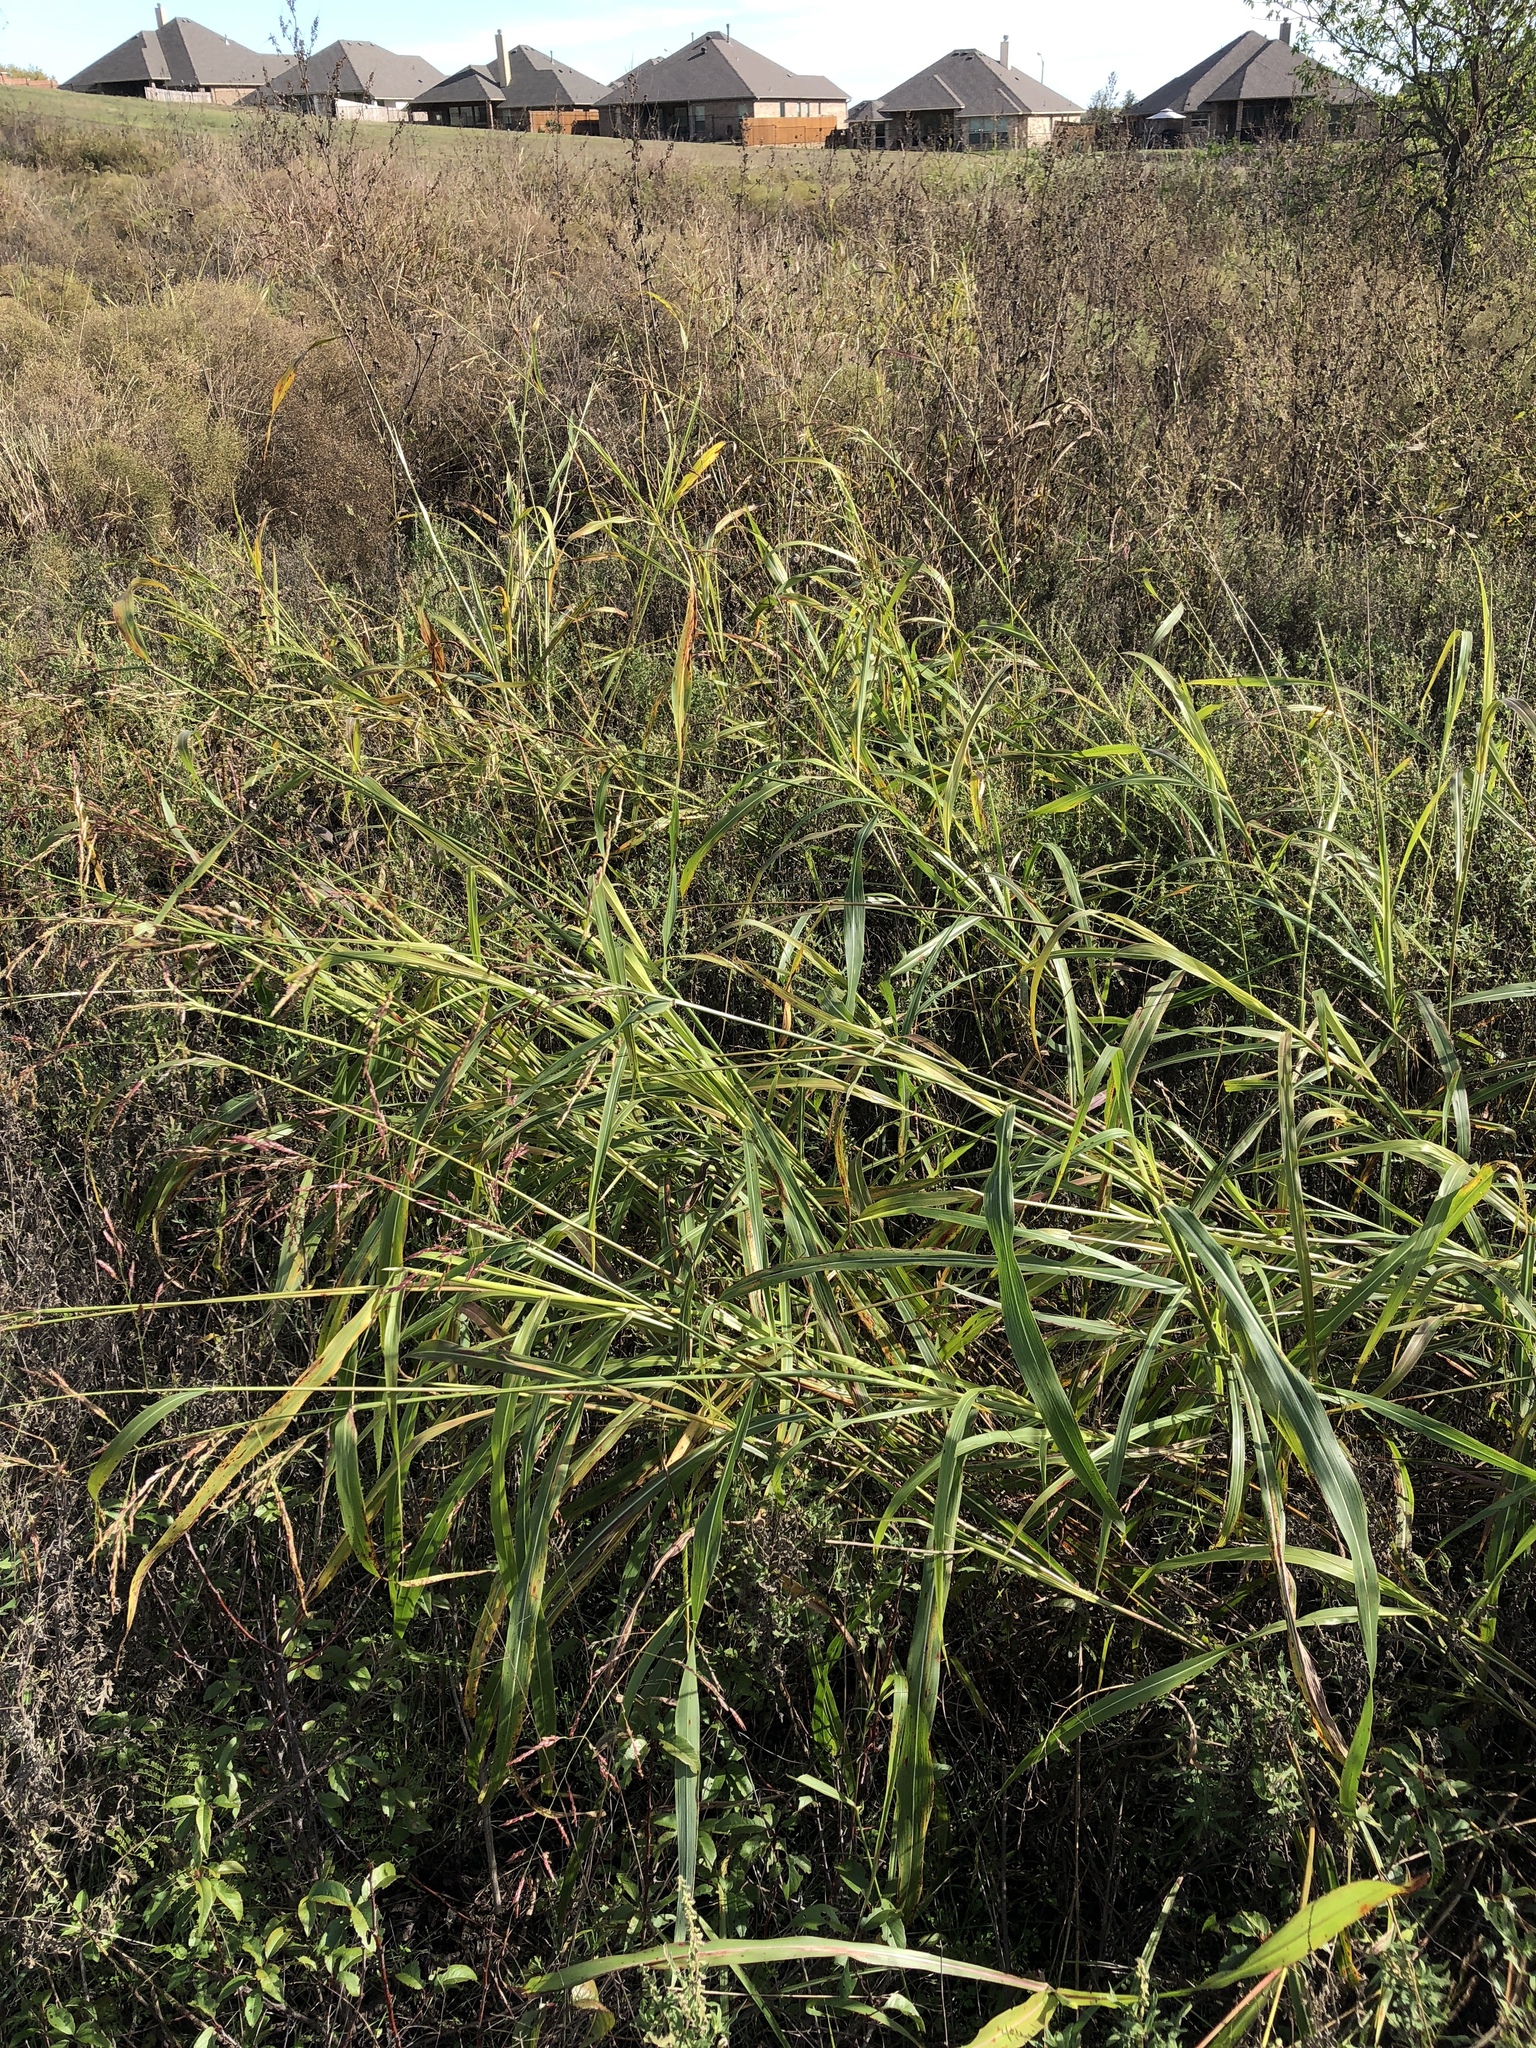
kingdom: Plantae
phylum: Tracheophyta
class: Liliopsida
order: Poales
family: Poaceae
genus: Sorghum
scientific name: Sorghum halepense
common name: Johnson-grass
